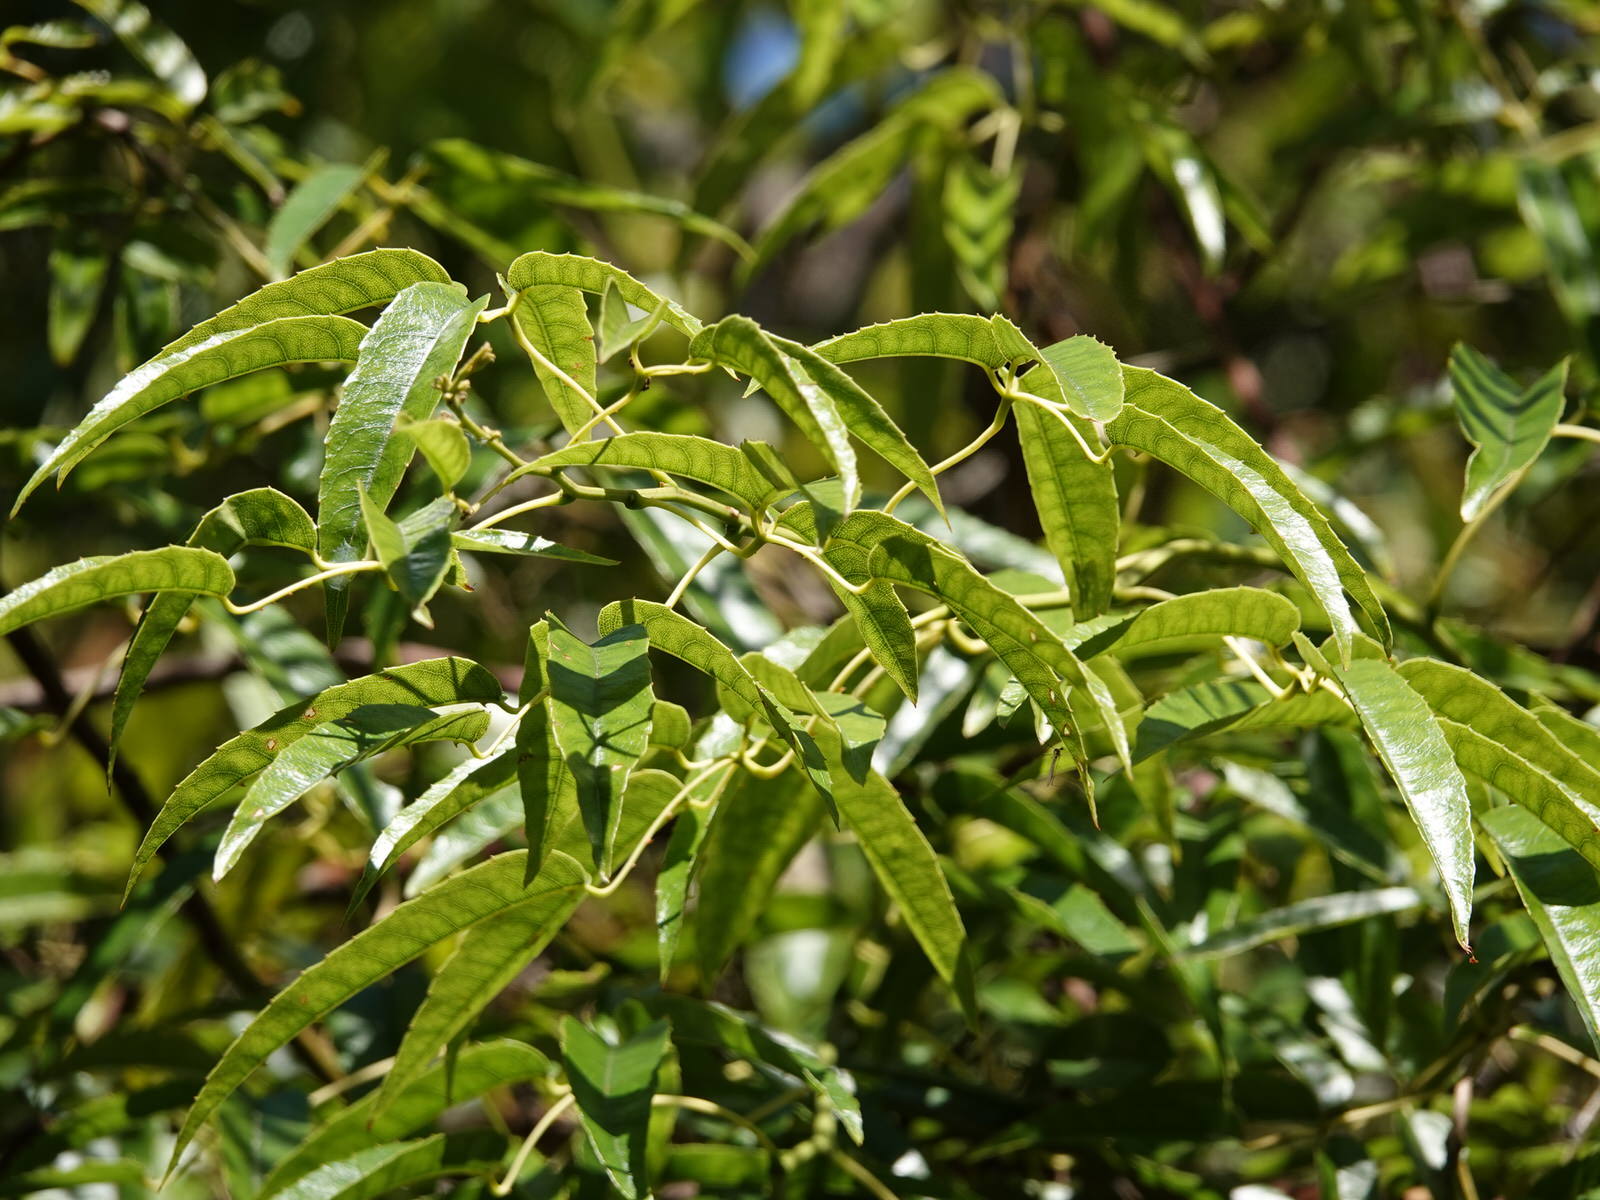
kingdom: Plantae
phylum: Tracheophyta
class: Magnoliopsida
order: Rosales
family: Rosaceae
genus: Rubus
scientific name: Rubus cissoides
